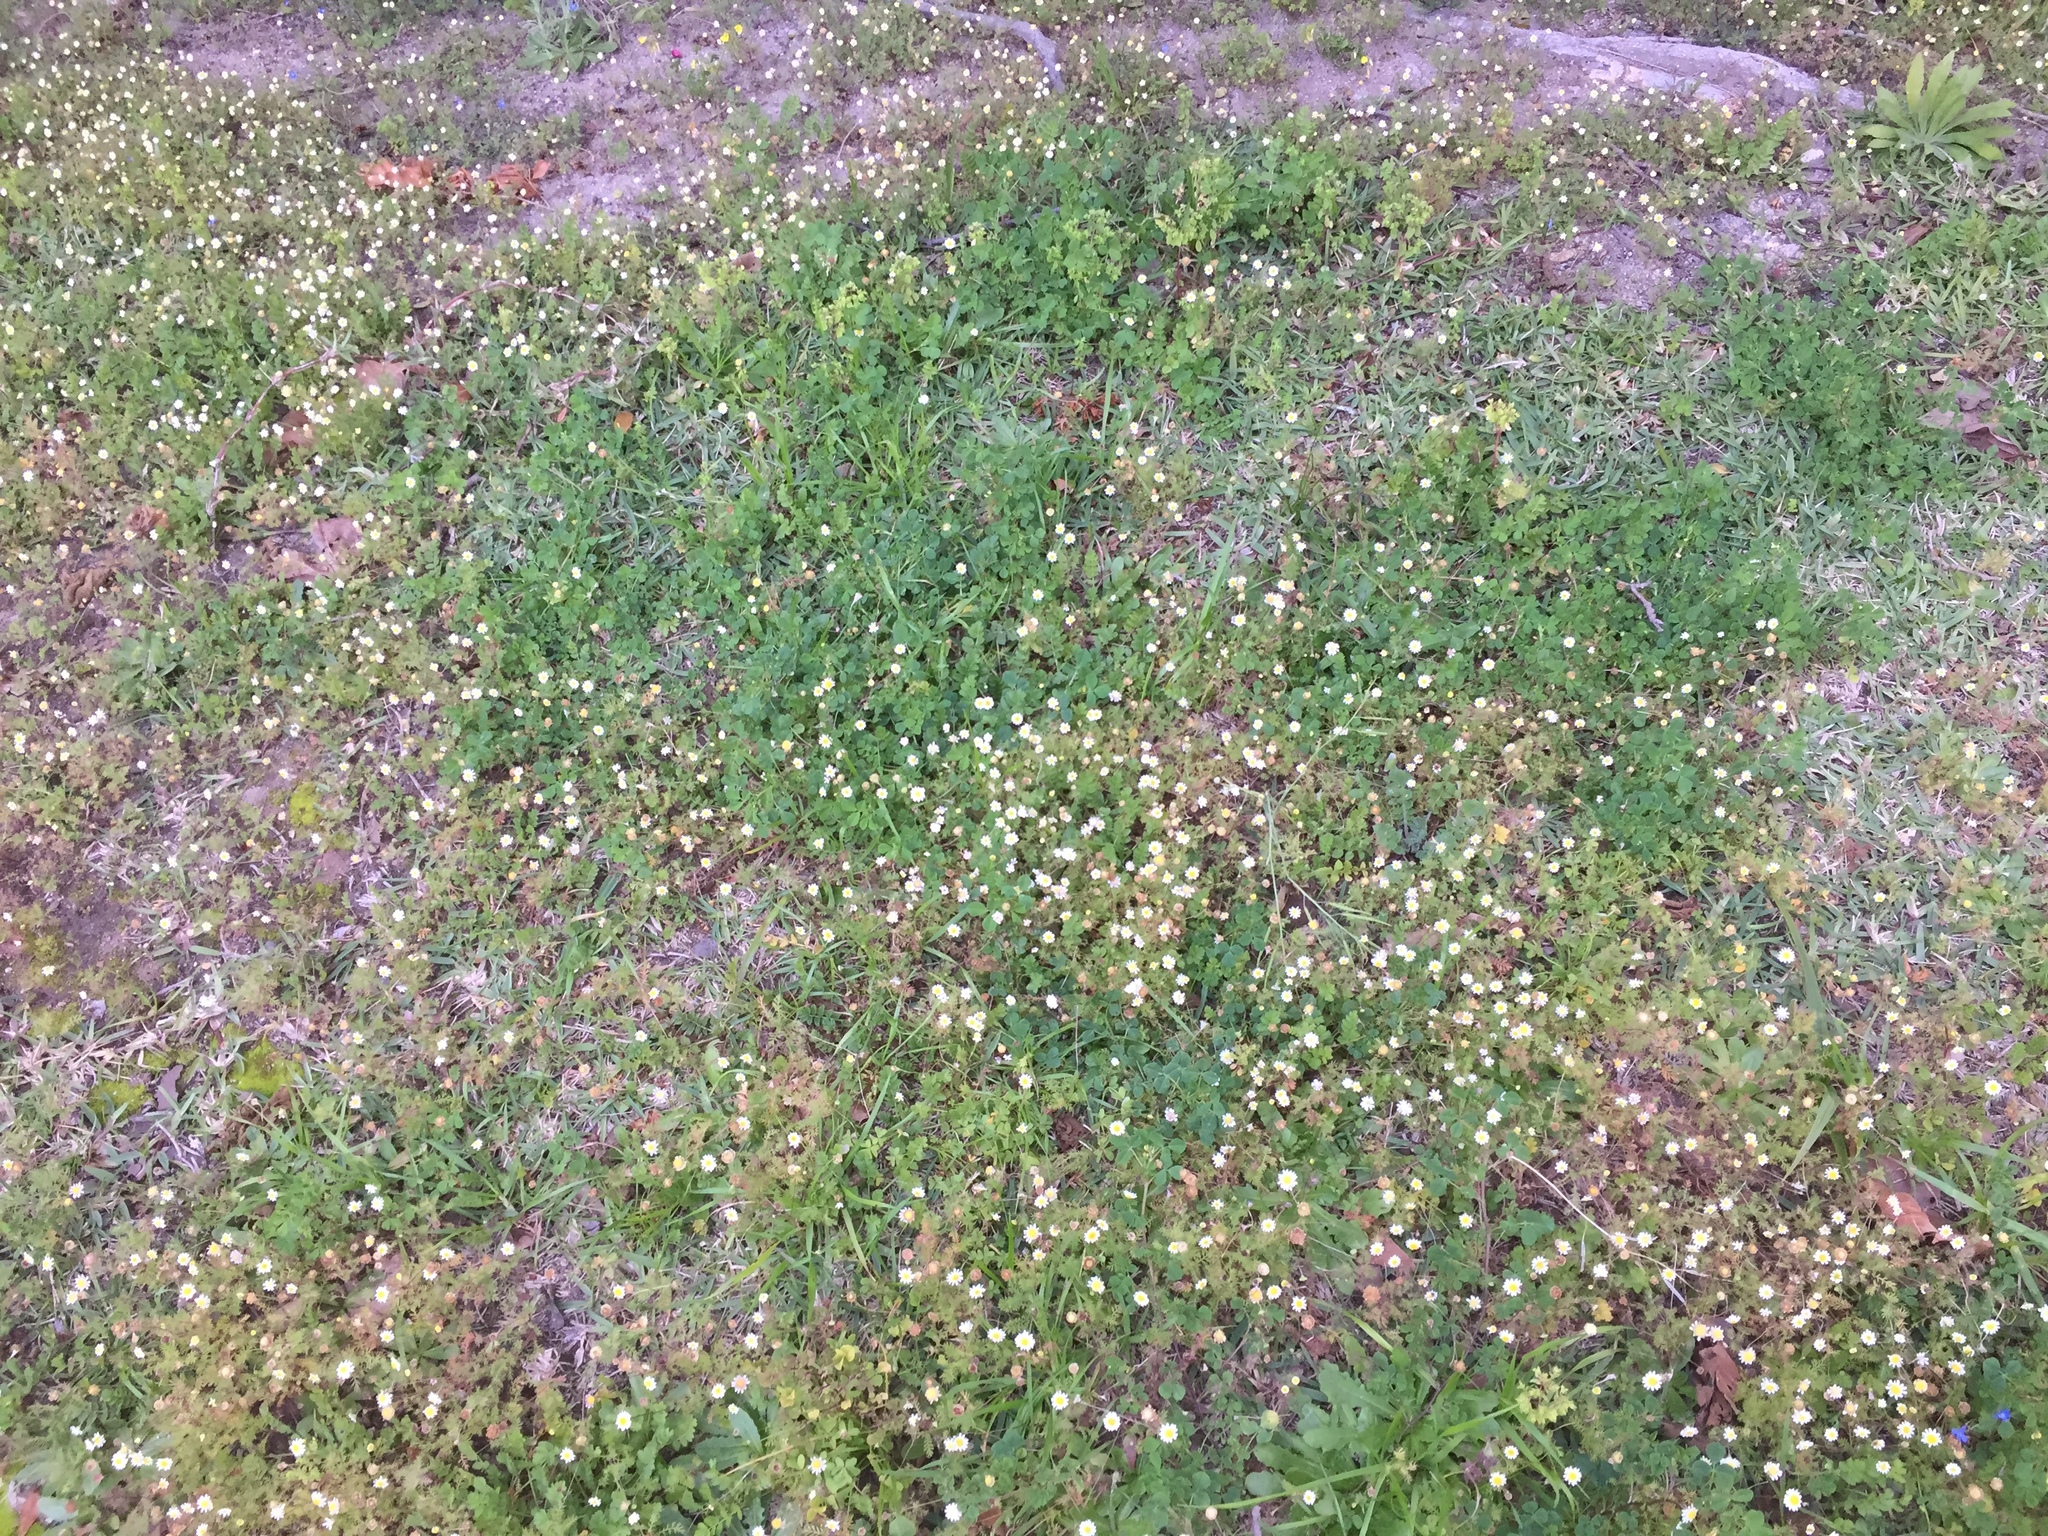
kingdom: Plantae
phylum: Tracheophyta
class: Magnoliopsida
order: Asterales
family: Asteraceae
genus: Cotula
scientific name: Cotula turbinata
